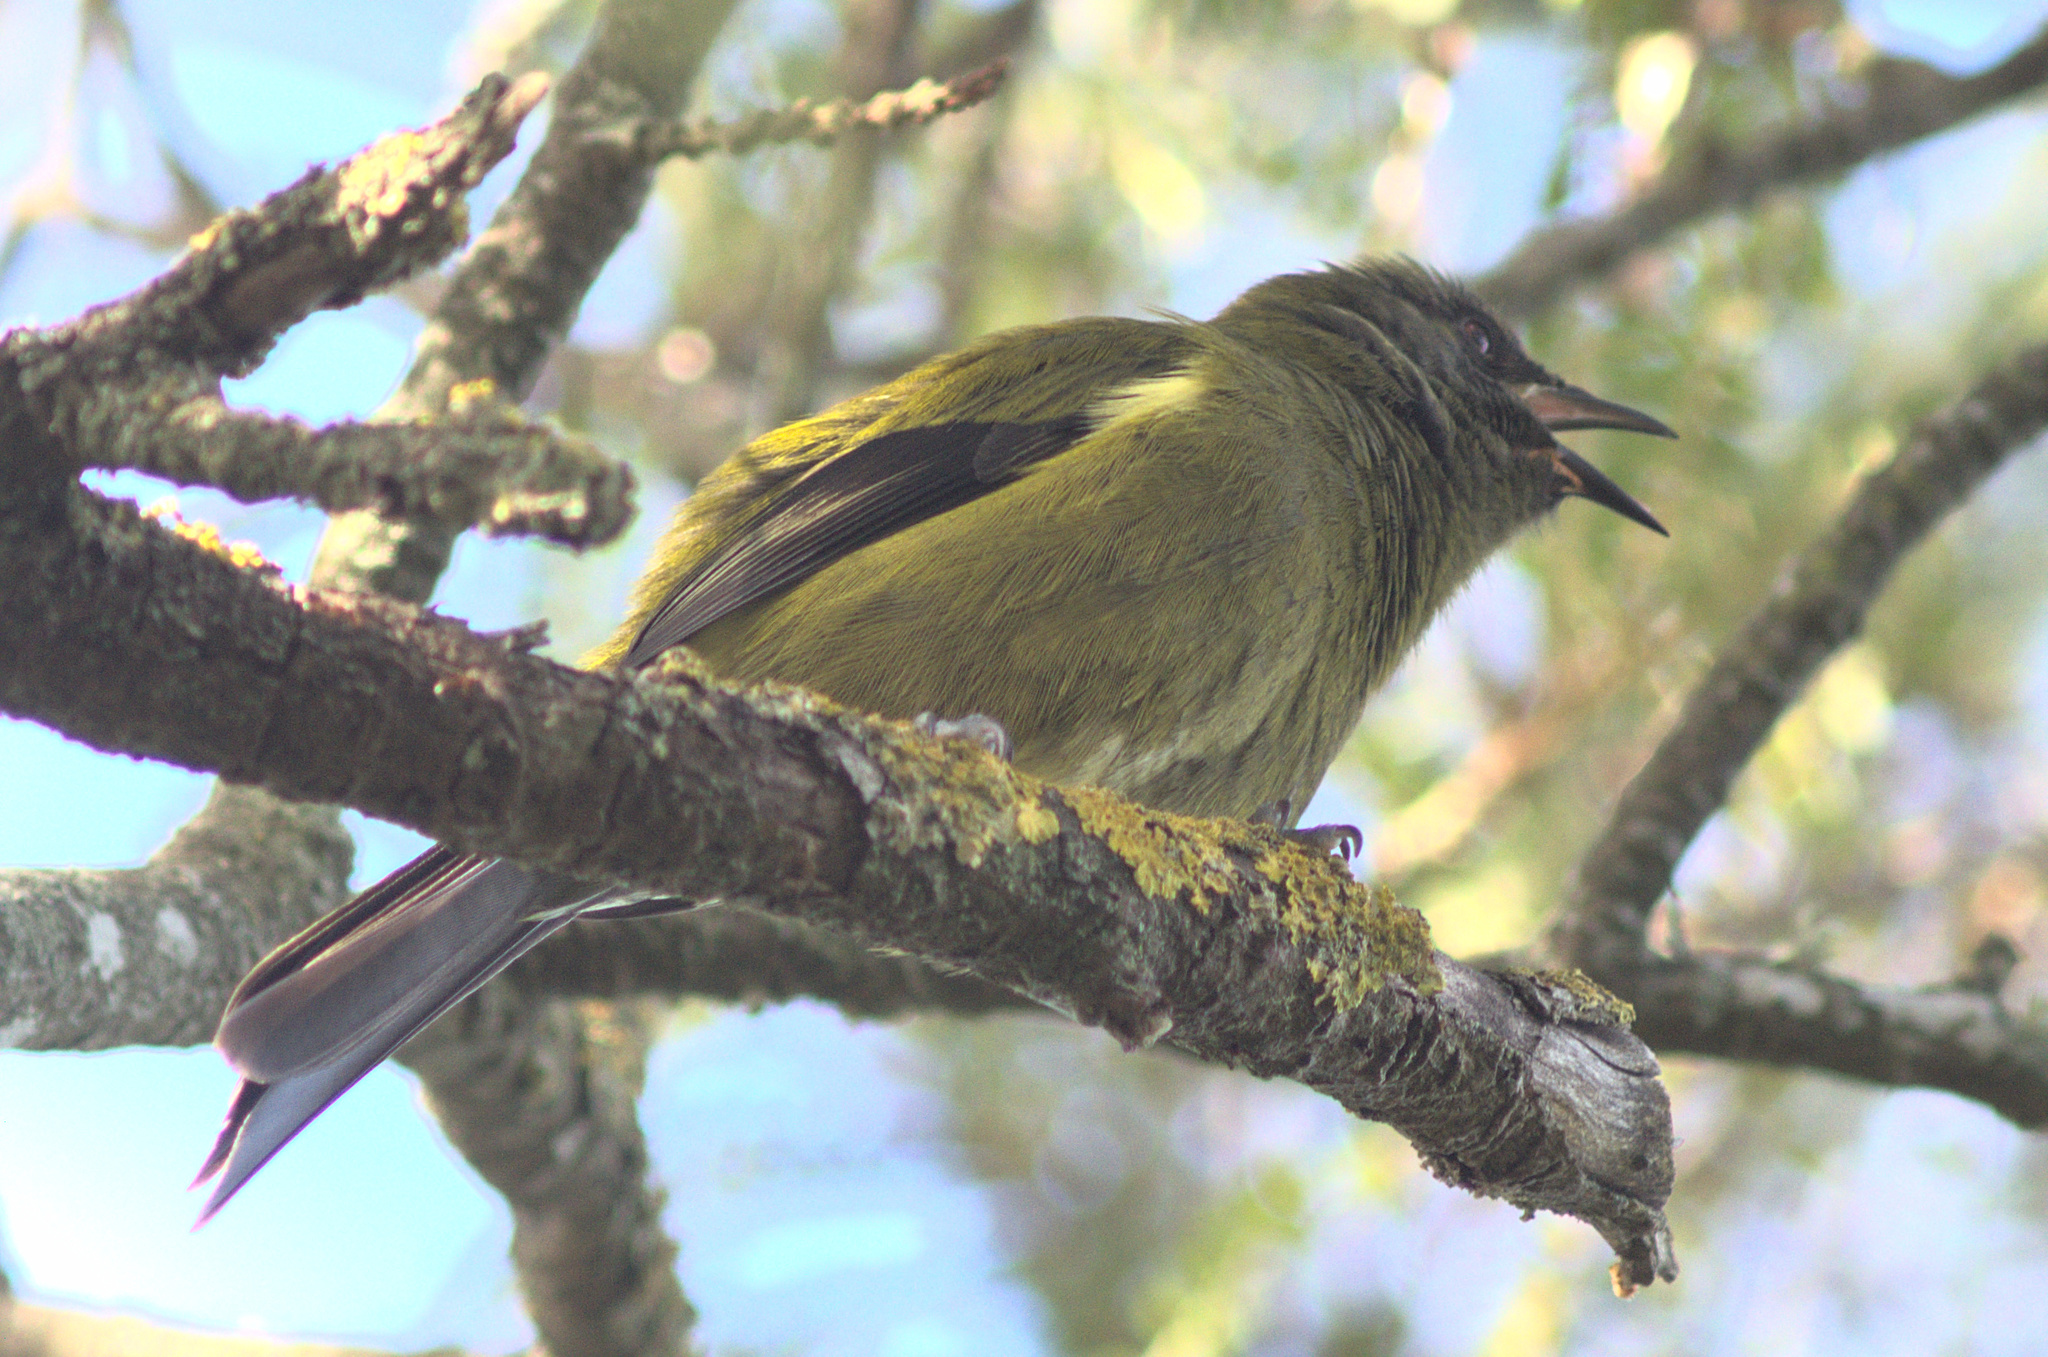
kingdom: Animalia
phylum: Chordata
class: Aves
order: Passeriformes
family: Meliphagidae
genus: Anthornis
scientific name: Anthornis melanura
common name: New zealand bellbird
